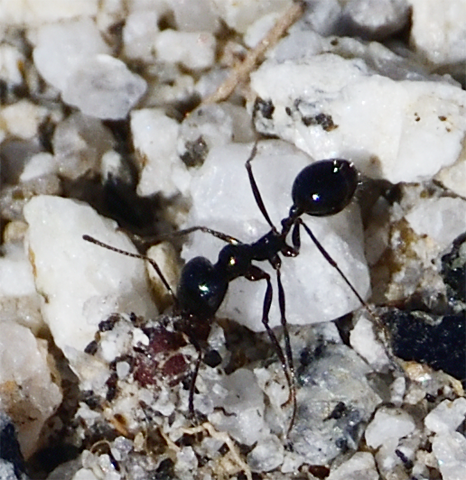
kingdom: Animalia
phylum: Arthropoda
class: Insecta
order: Hymenoptera
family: Formicidae
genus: Messor
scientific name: Messor pergandei
